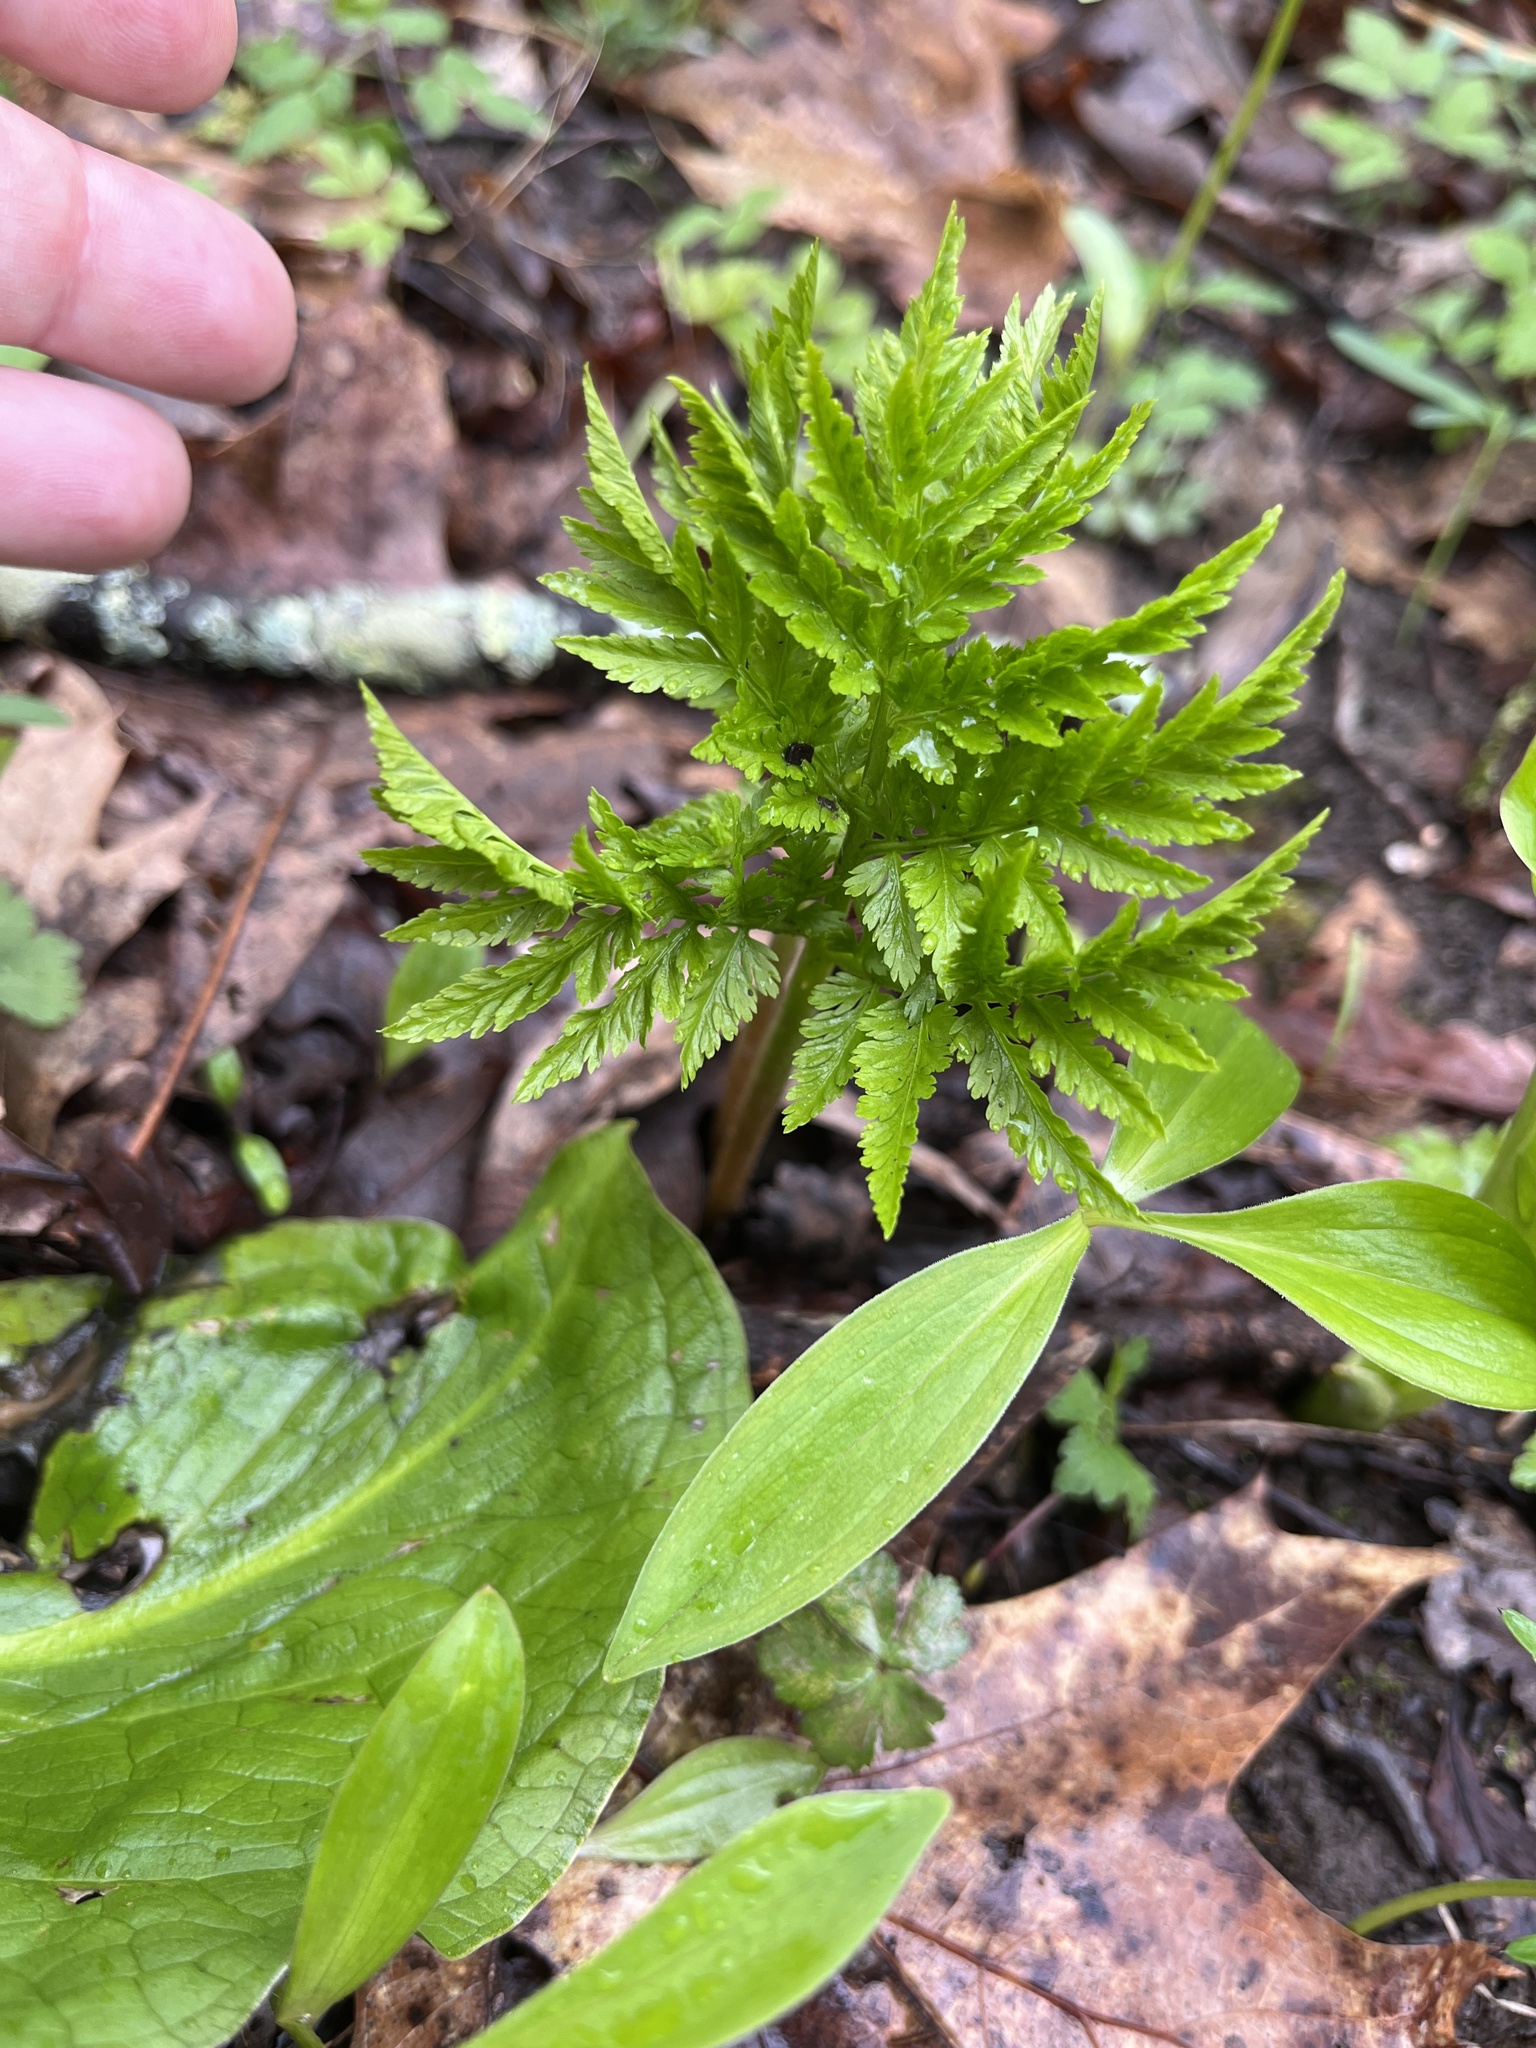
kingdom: Plantae
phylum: Tracheophyta
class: Polypodiopsida
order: Ophioglossales
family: Ophioglossaceae
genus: Botrypus
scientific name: Botrypus virginianus
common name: Common grapefern
